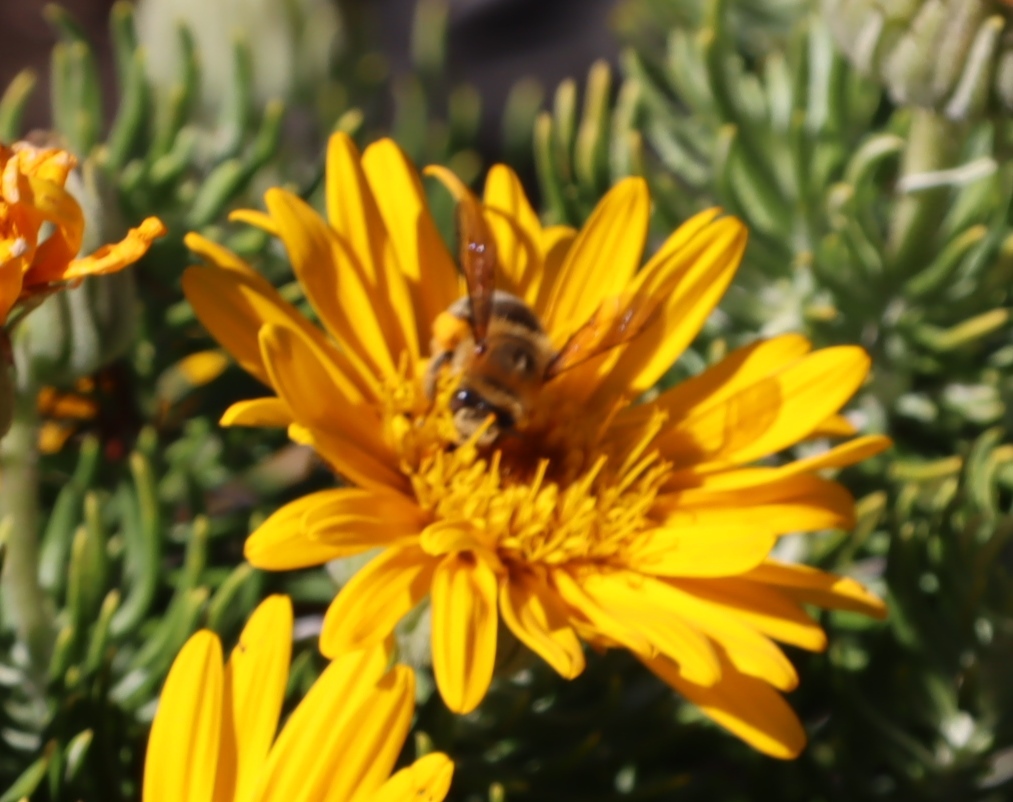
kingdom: Plantae
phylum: Tracheophyta
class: Magnoliopsida
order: Asterales
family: Asteraceae
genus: Heterolepis
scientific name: Heterolepis aliena
